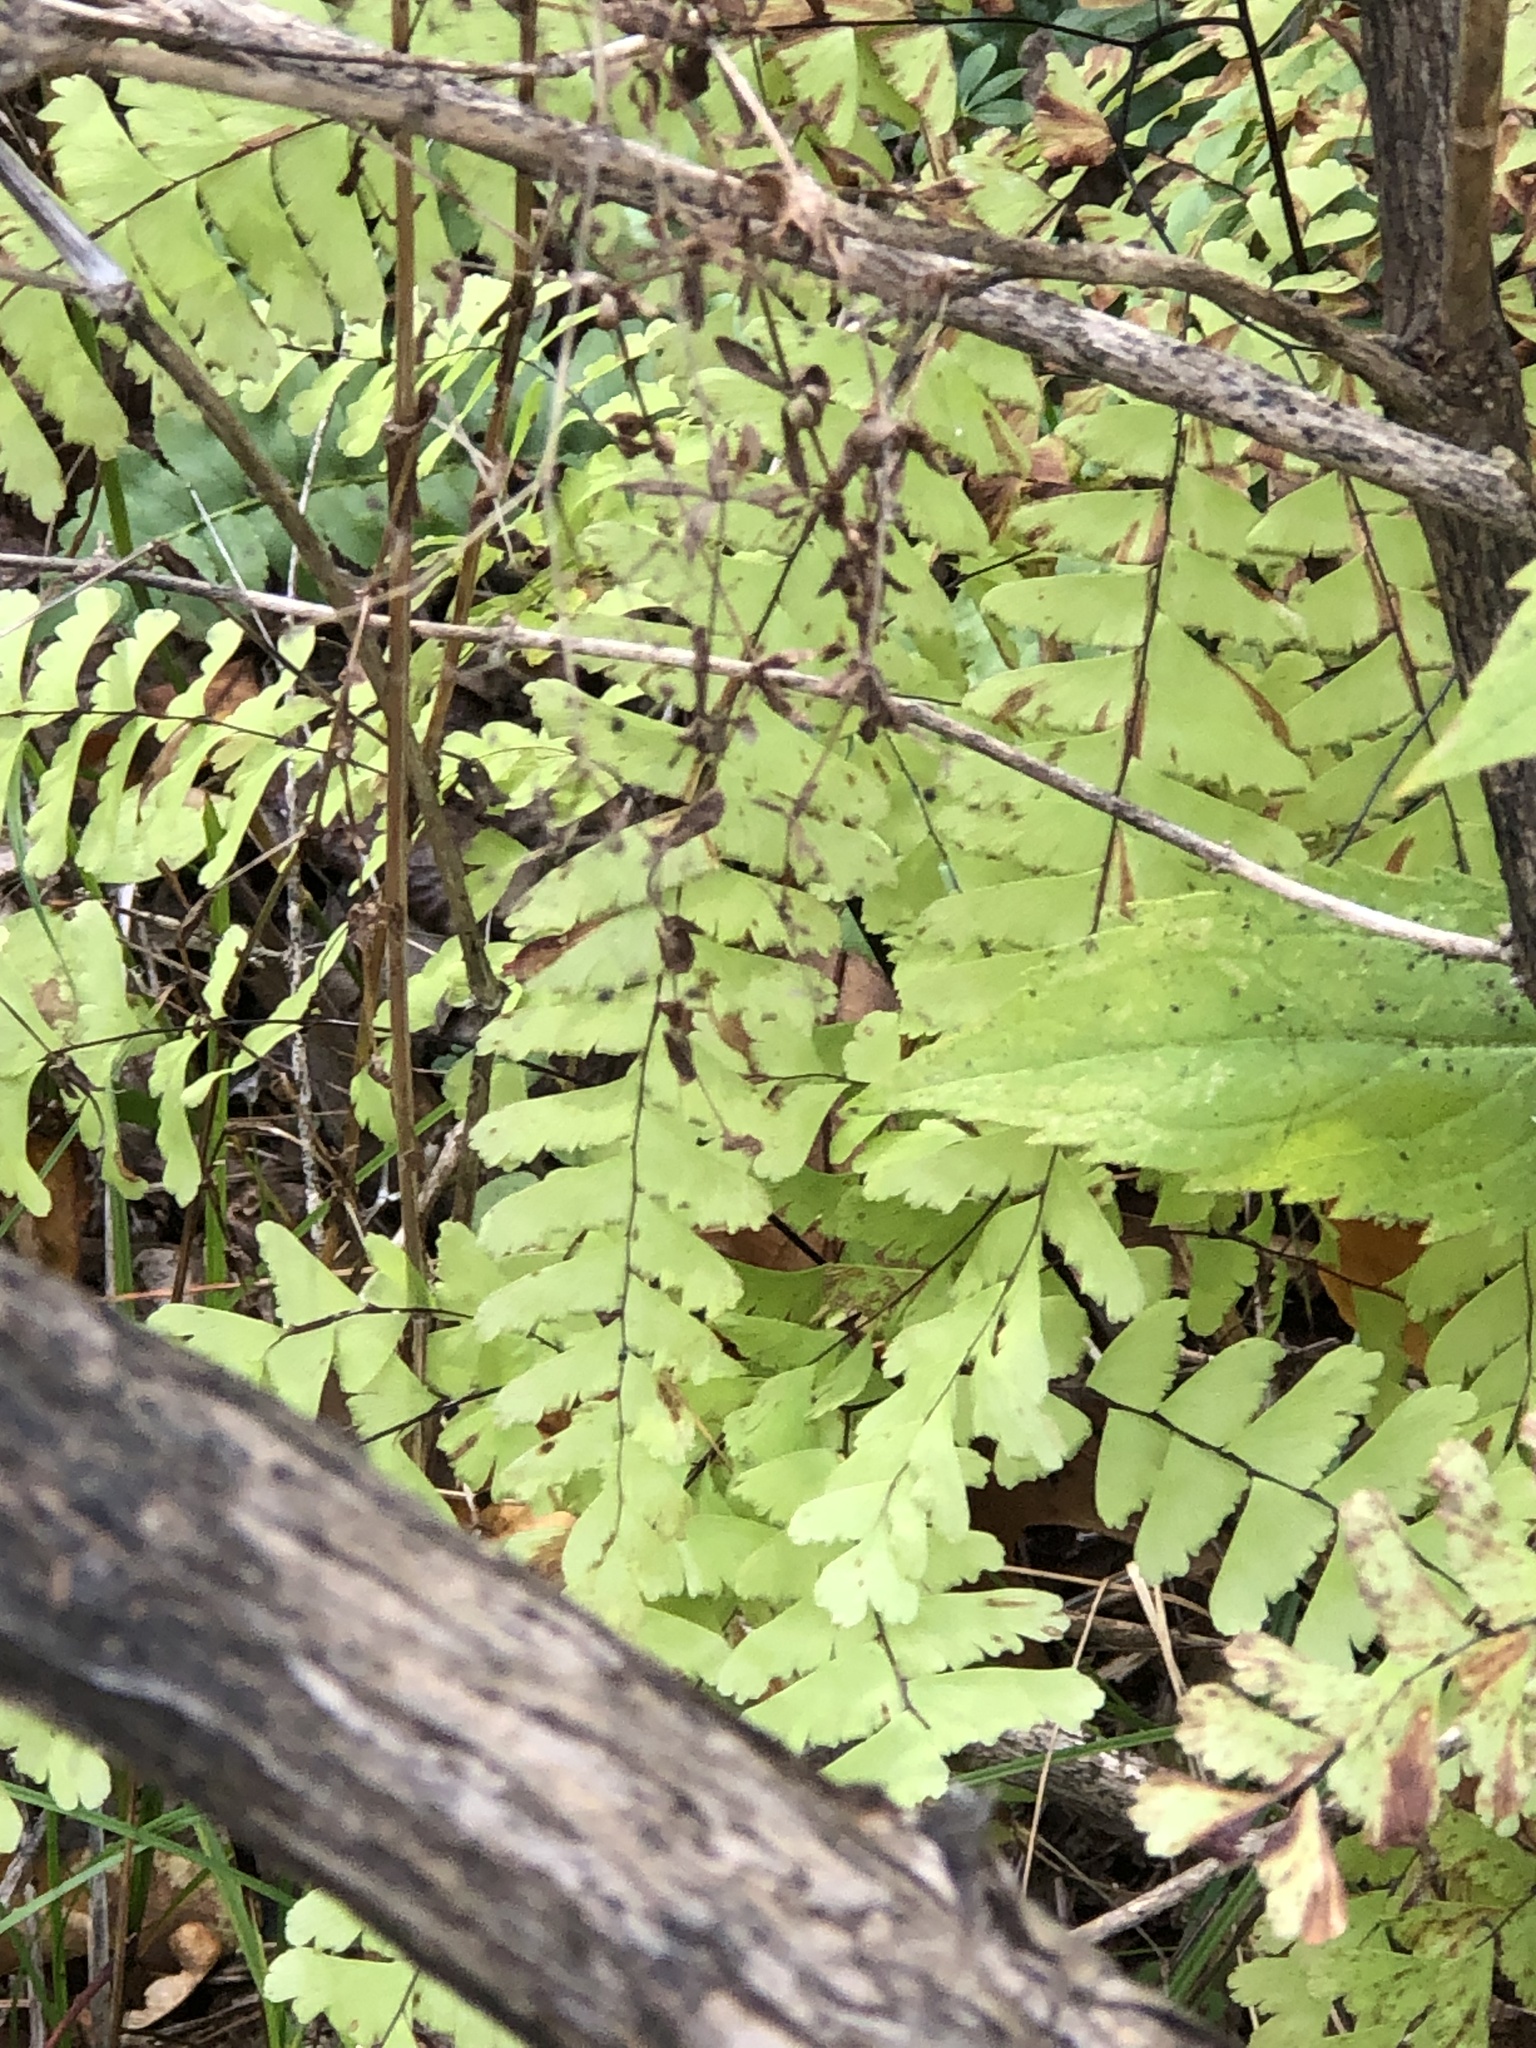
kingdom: Plantae
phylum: Tracheophyta
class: Polypodiopsida
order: Polypodiales
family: Pteridaceae
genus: Adiantum
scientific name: Adiantum pedatum
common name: Five-finger fern
